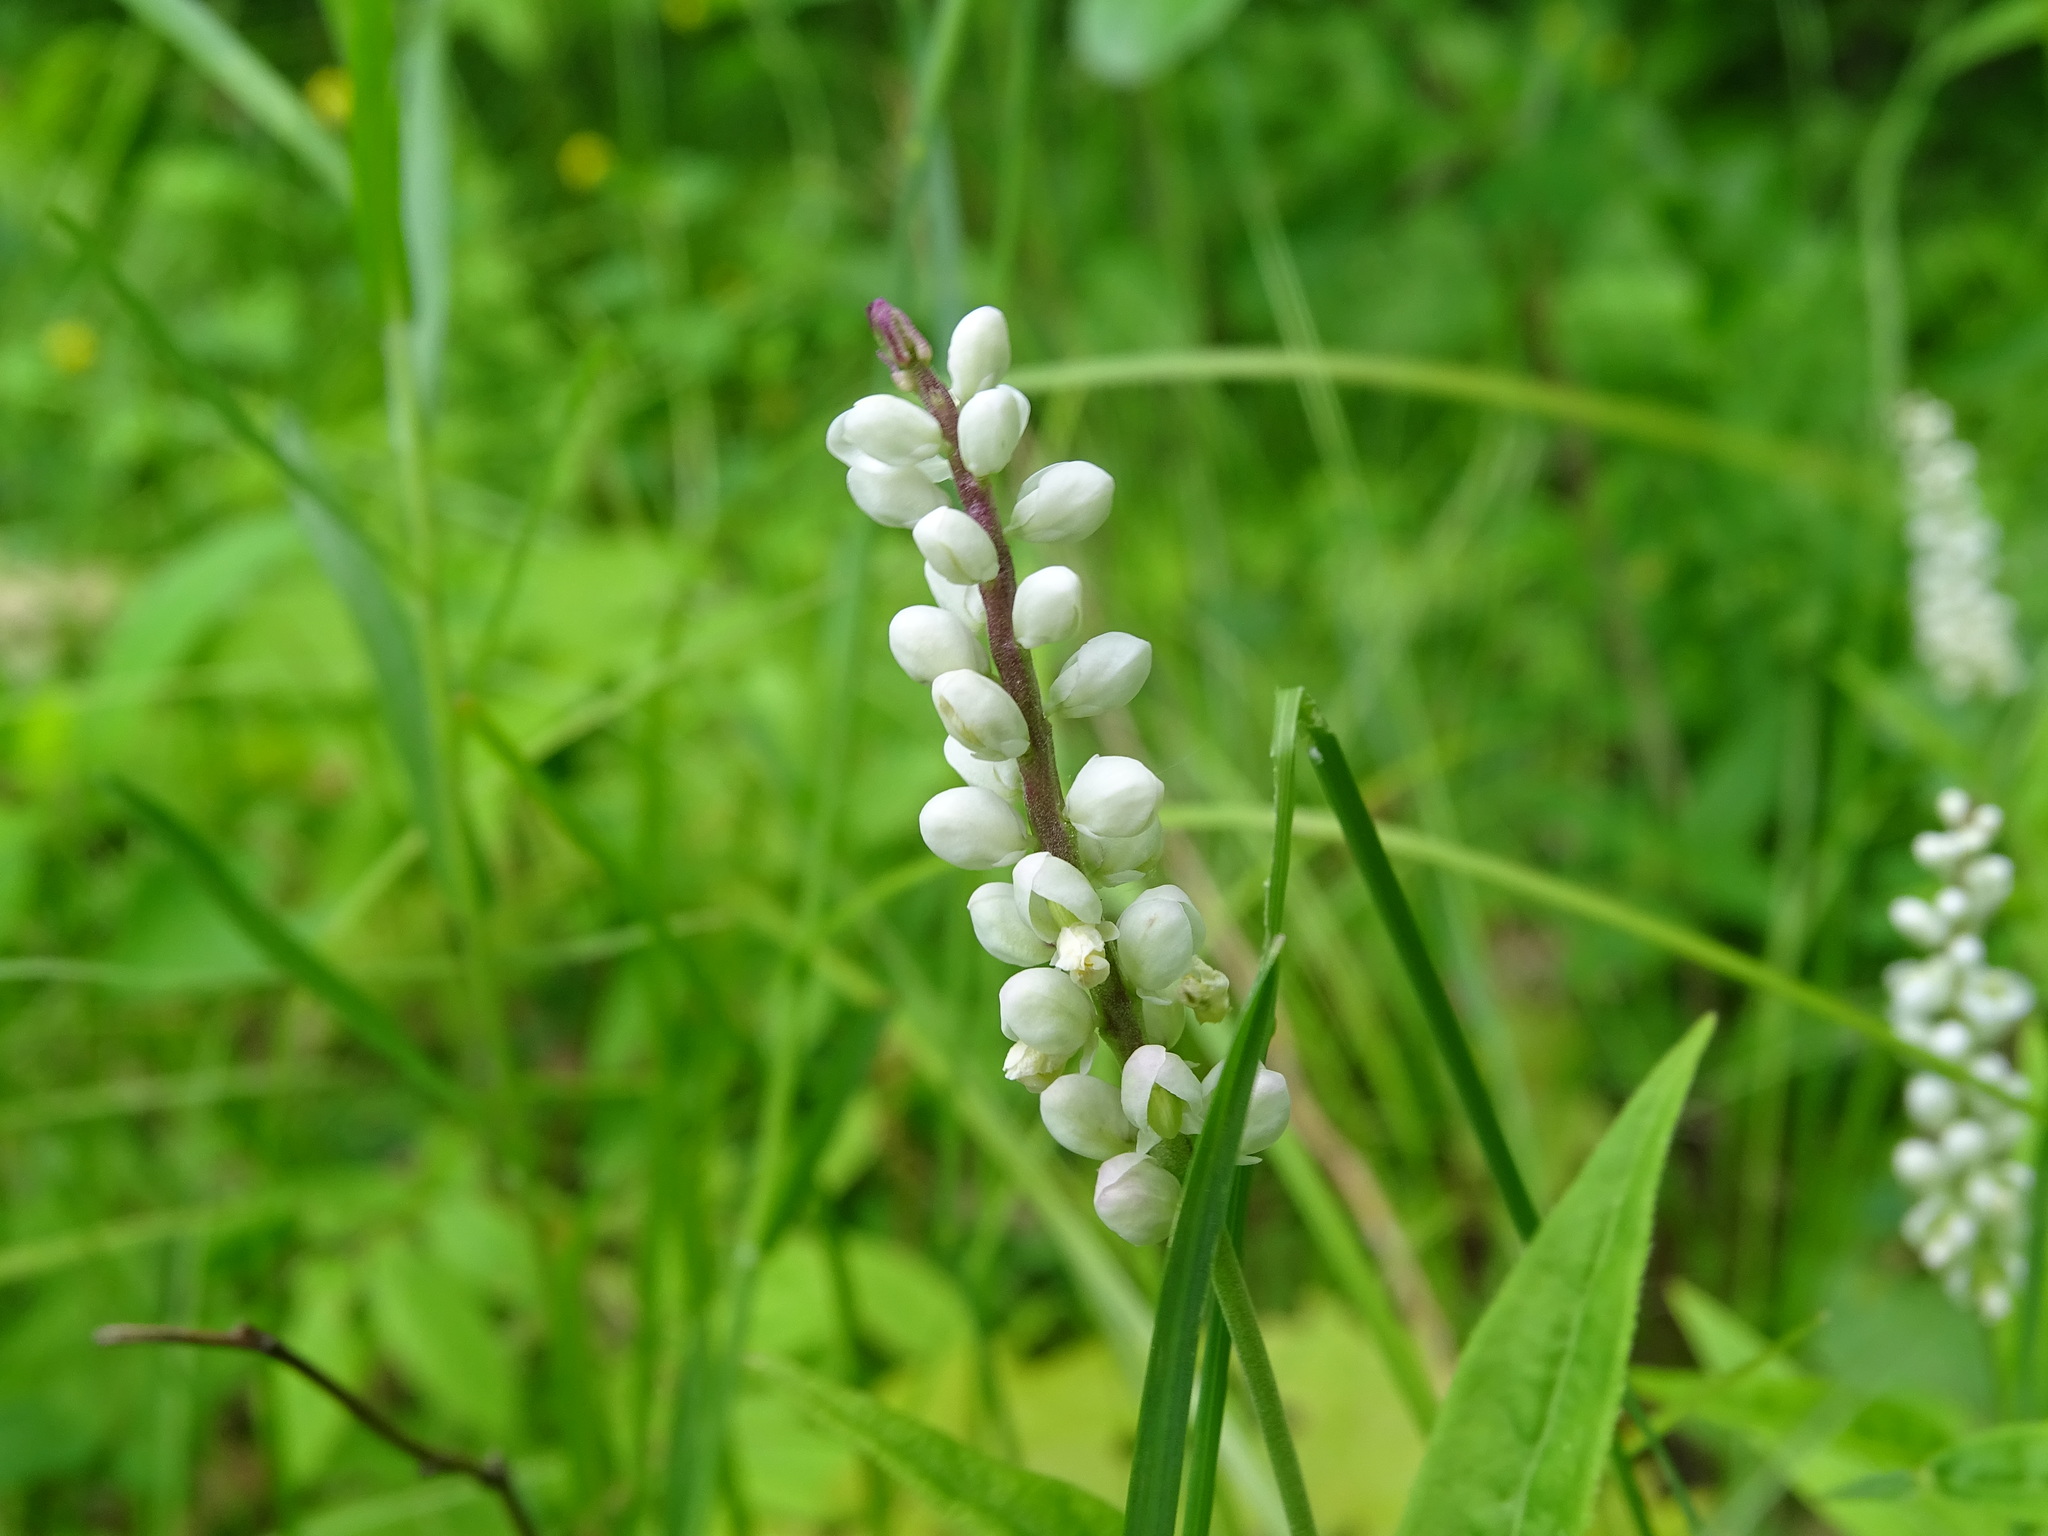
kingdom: Plantae
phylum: Tracheophyta
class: Magnoliopsida
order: Fabales
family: Polygalaceae
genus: Polygala
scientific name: Polygala senega
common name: Seneca snakeroot
